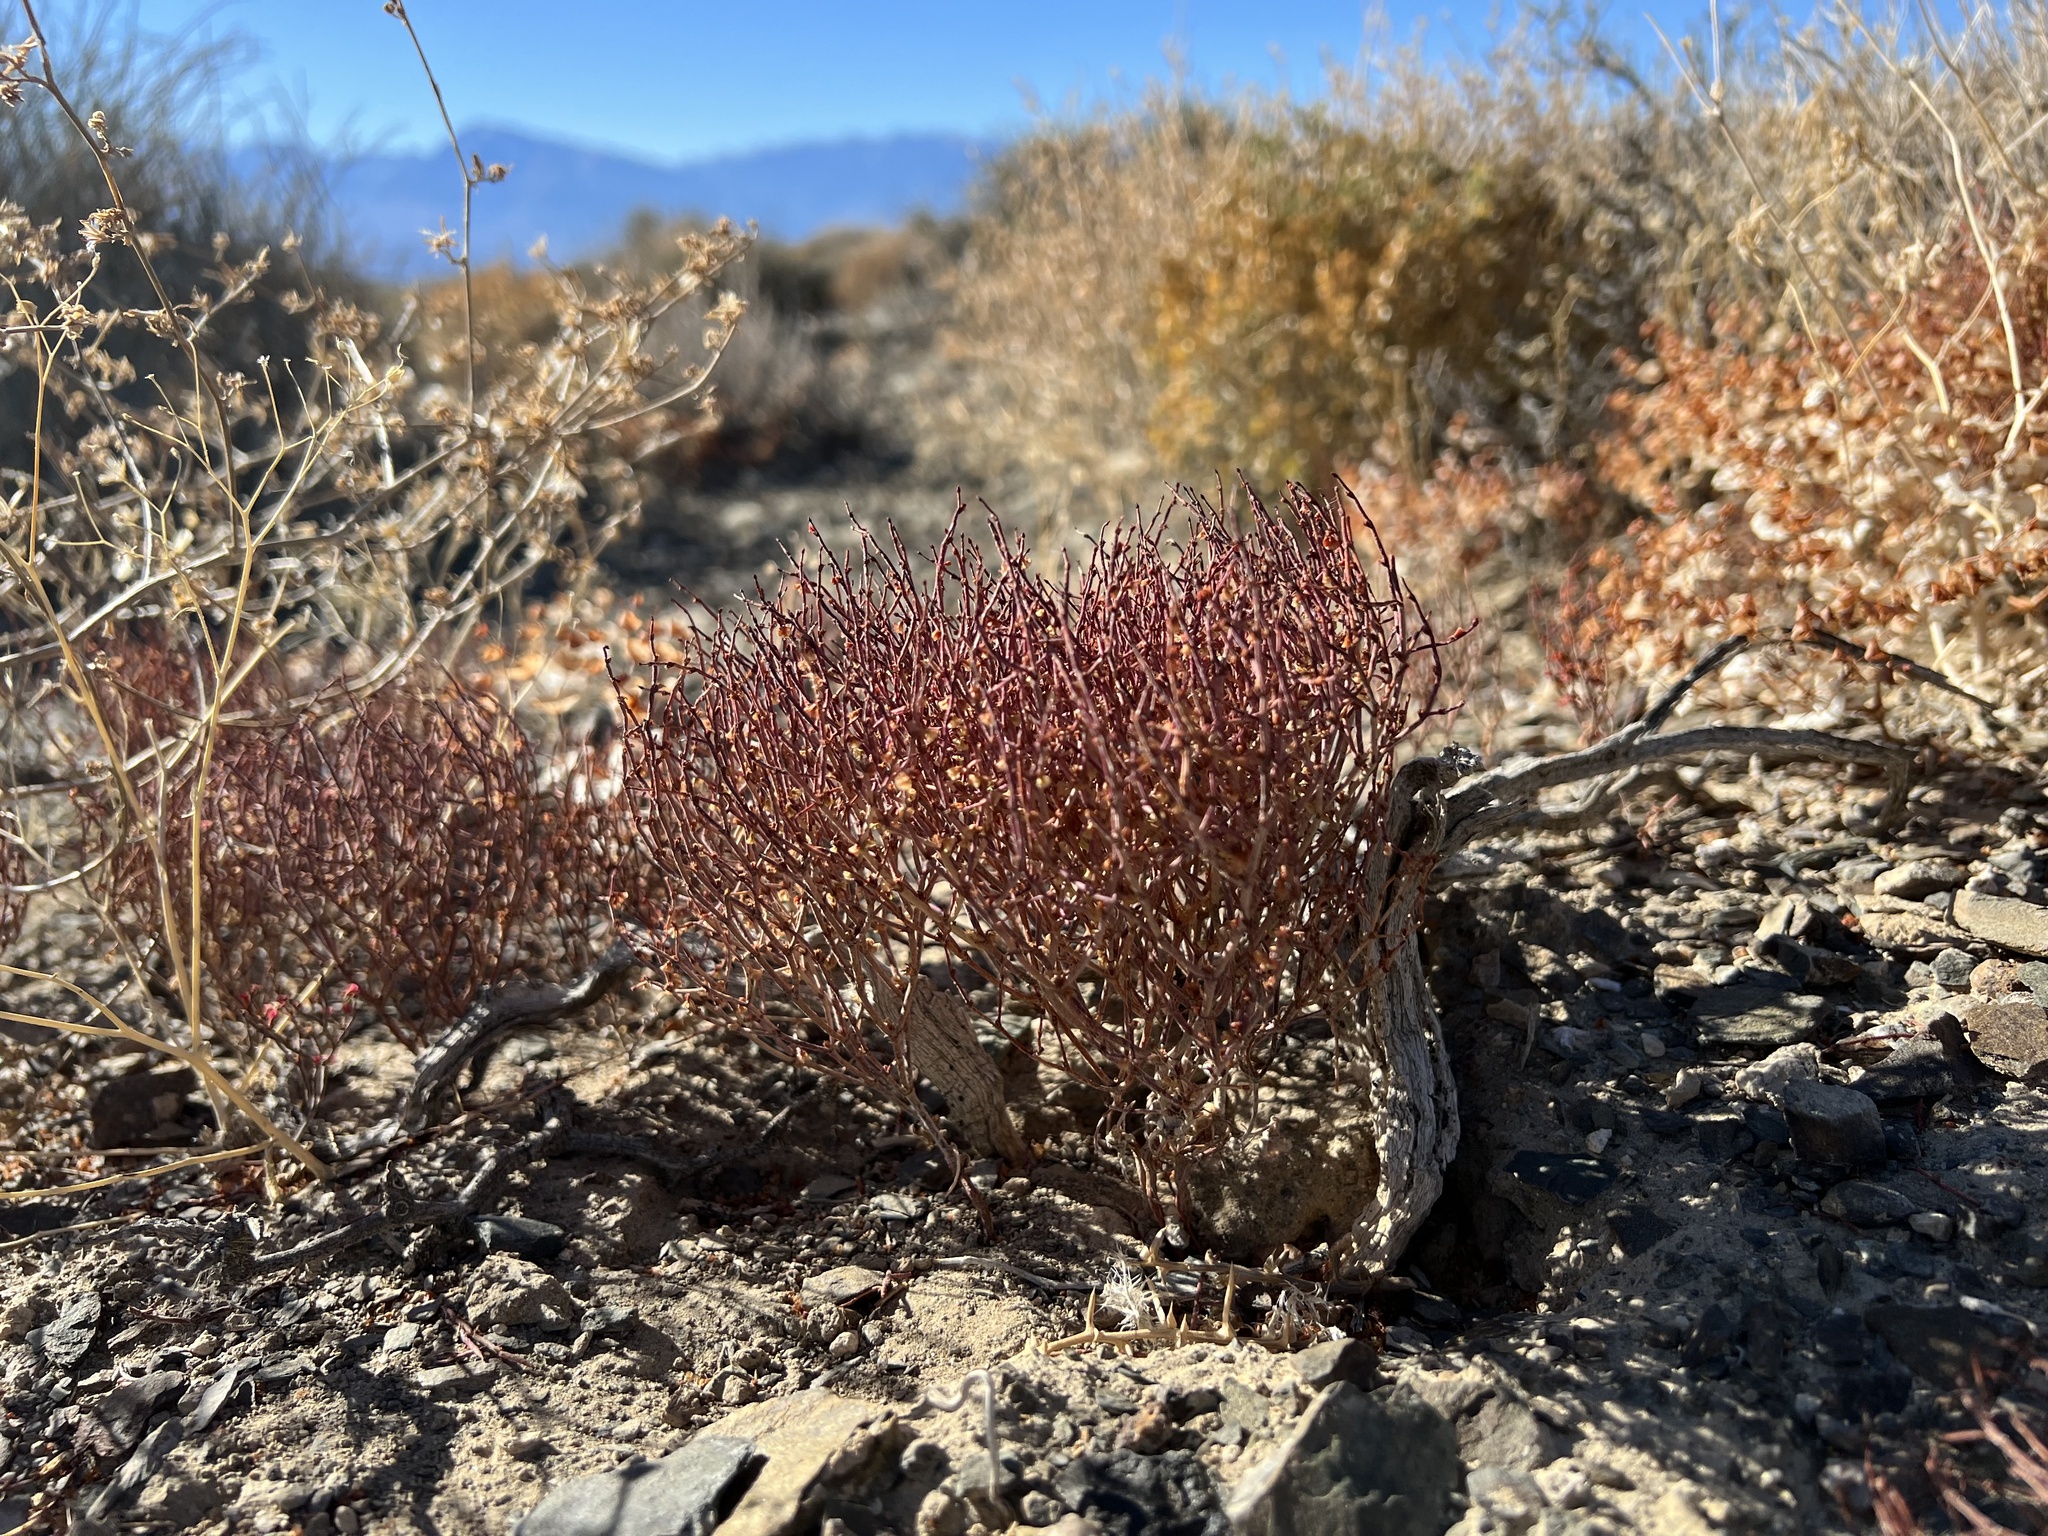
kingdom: Plantae
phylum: Tracheophyta
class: Magnoliopsida
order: Caryophyllales
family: Polygonaceae
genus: Eriogonum
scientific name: Eriogonum nidularium
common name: Bird's-nest wild buckwheat
